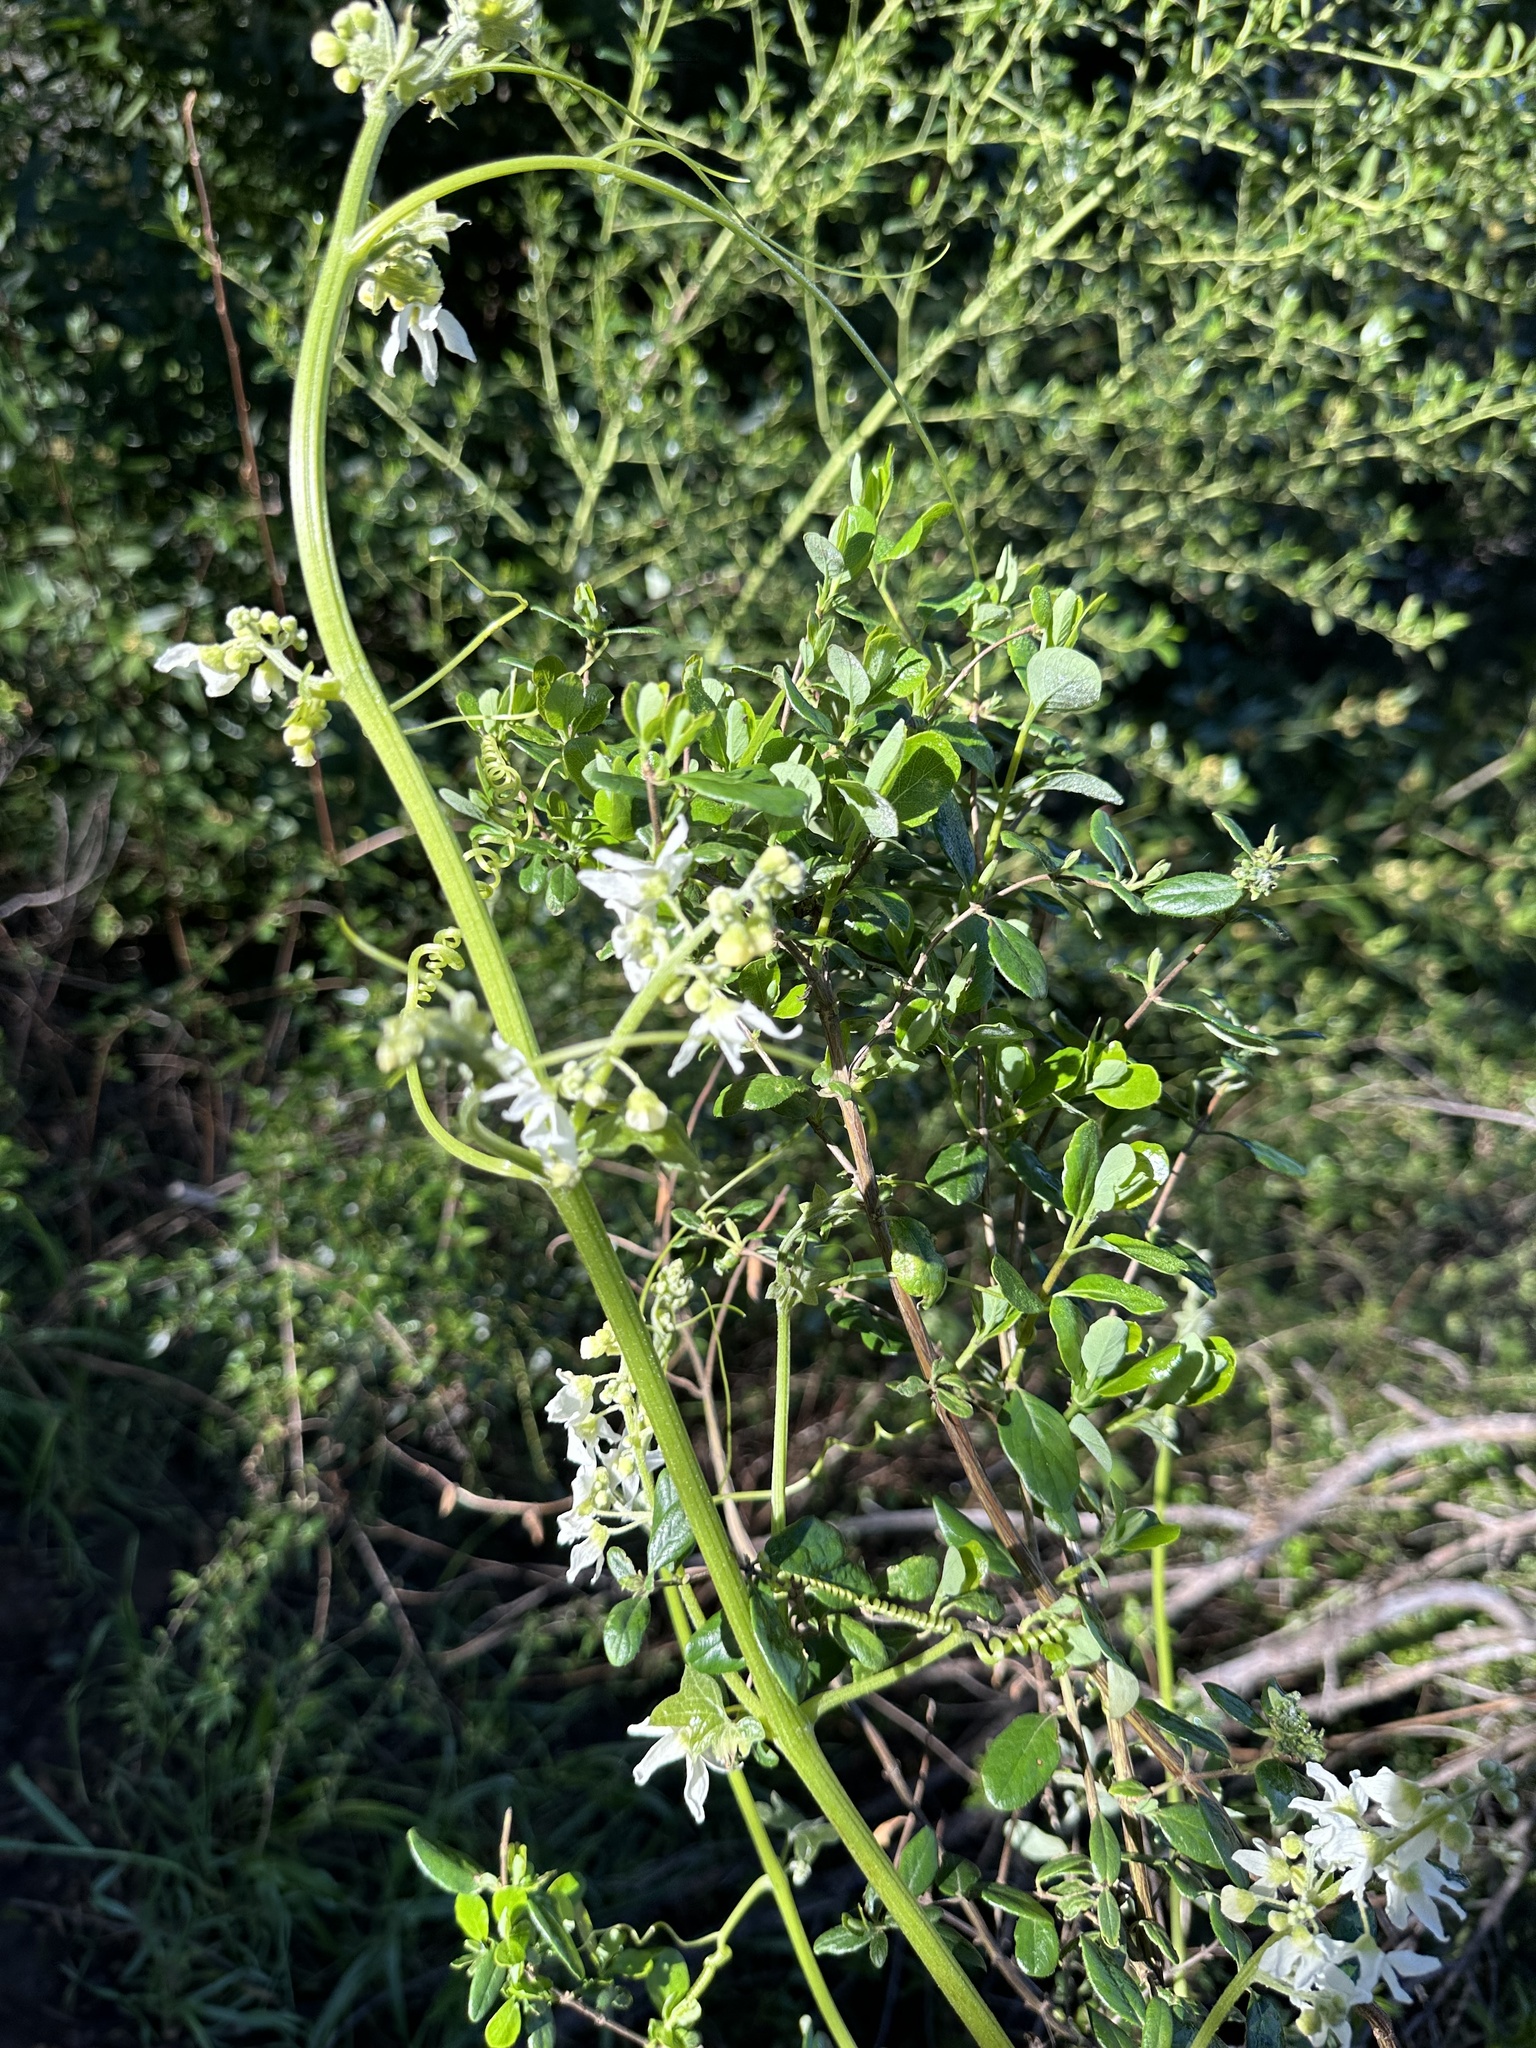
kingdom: Plantae
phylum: Tracheophyta
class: Magnoliopsida
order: Cucurbitales
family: Cucurbitaceae
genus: Marah
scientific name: Marah macrocarpa
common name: Cucamonga manroot
